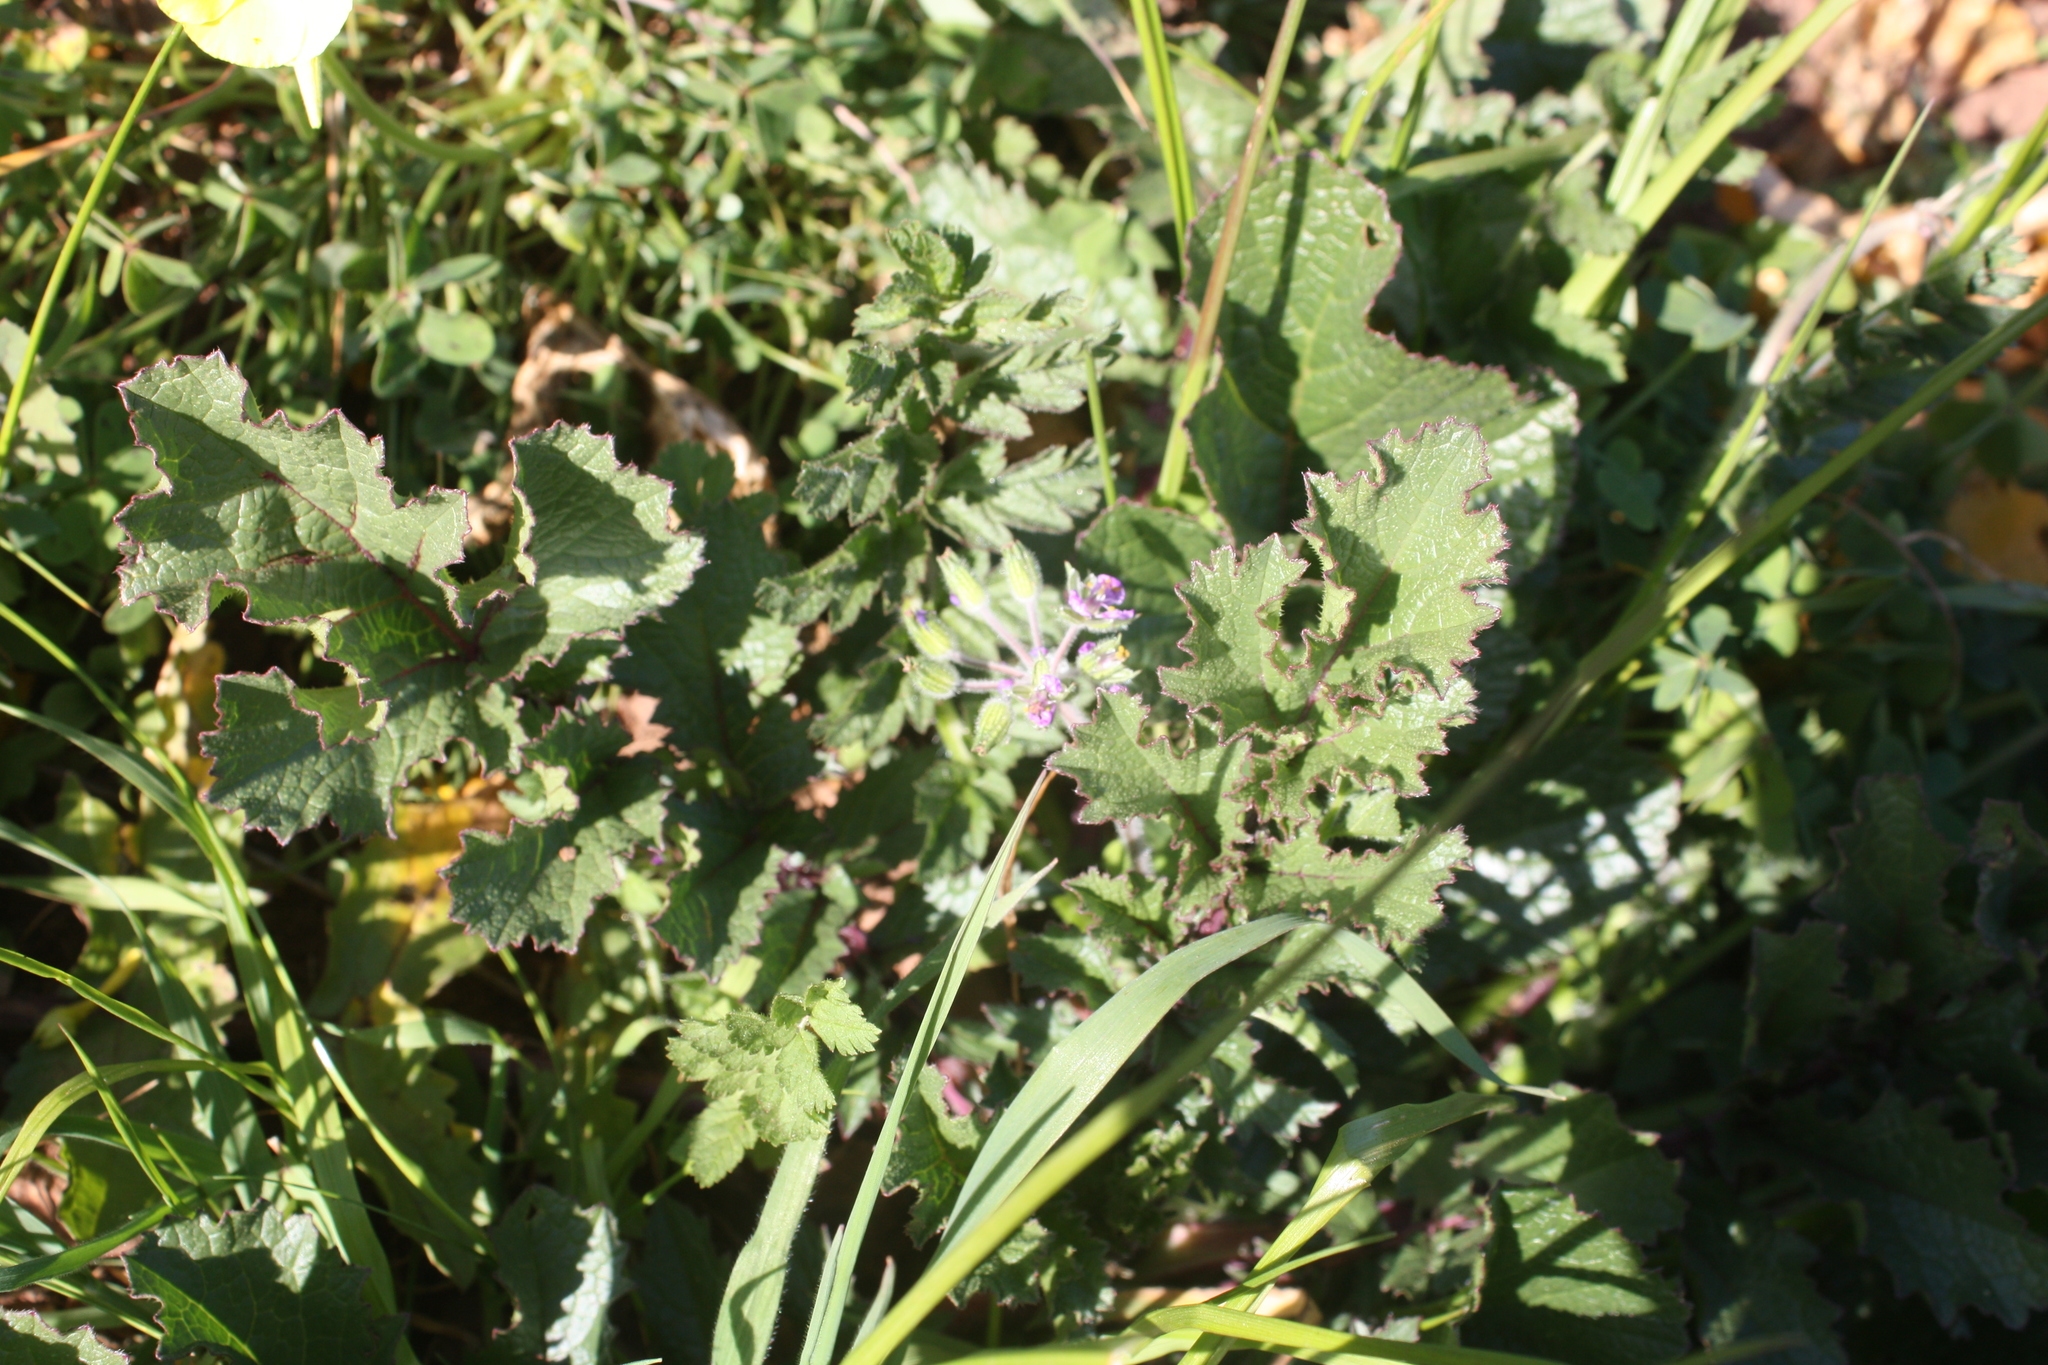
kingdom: Plantae
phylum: Tracheophyta
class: Magnoliopsida
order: Geraniales
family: Geraniaceae
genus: Erodium
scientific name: Erodium cicutarium
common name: Common stork's-bill
